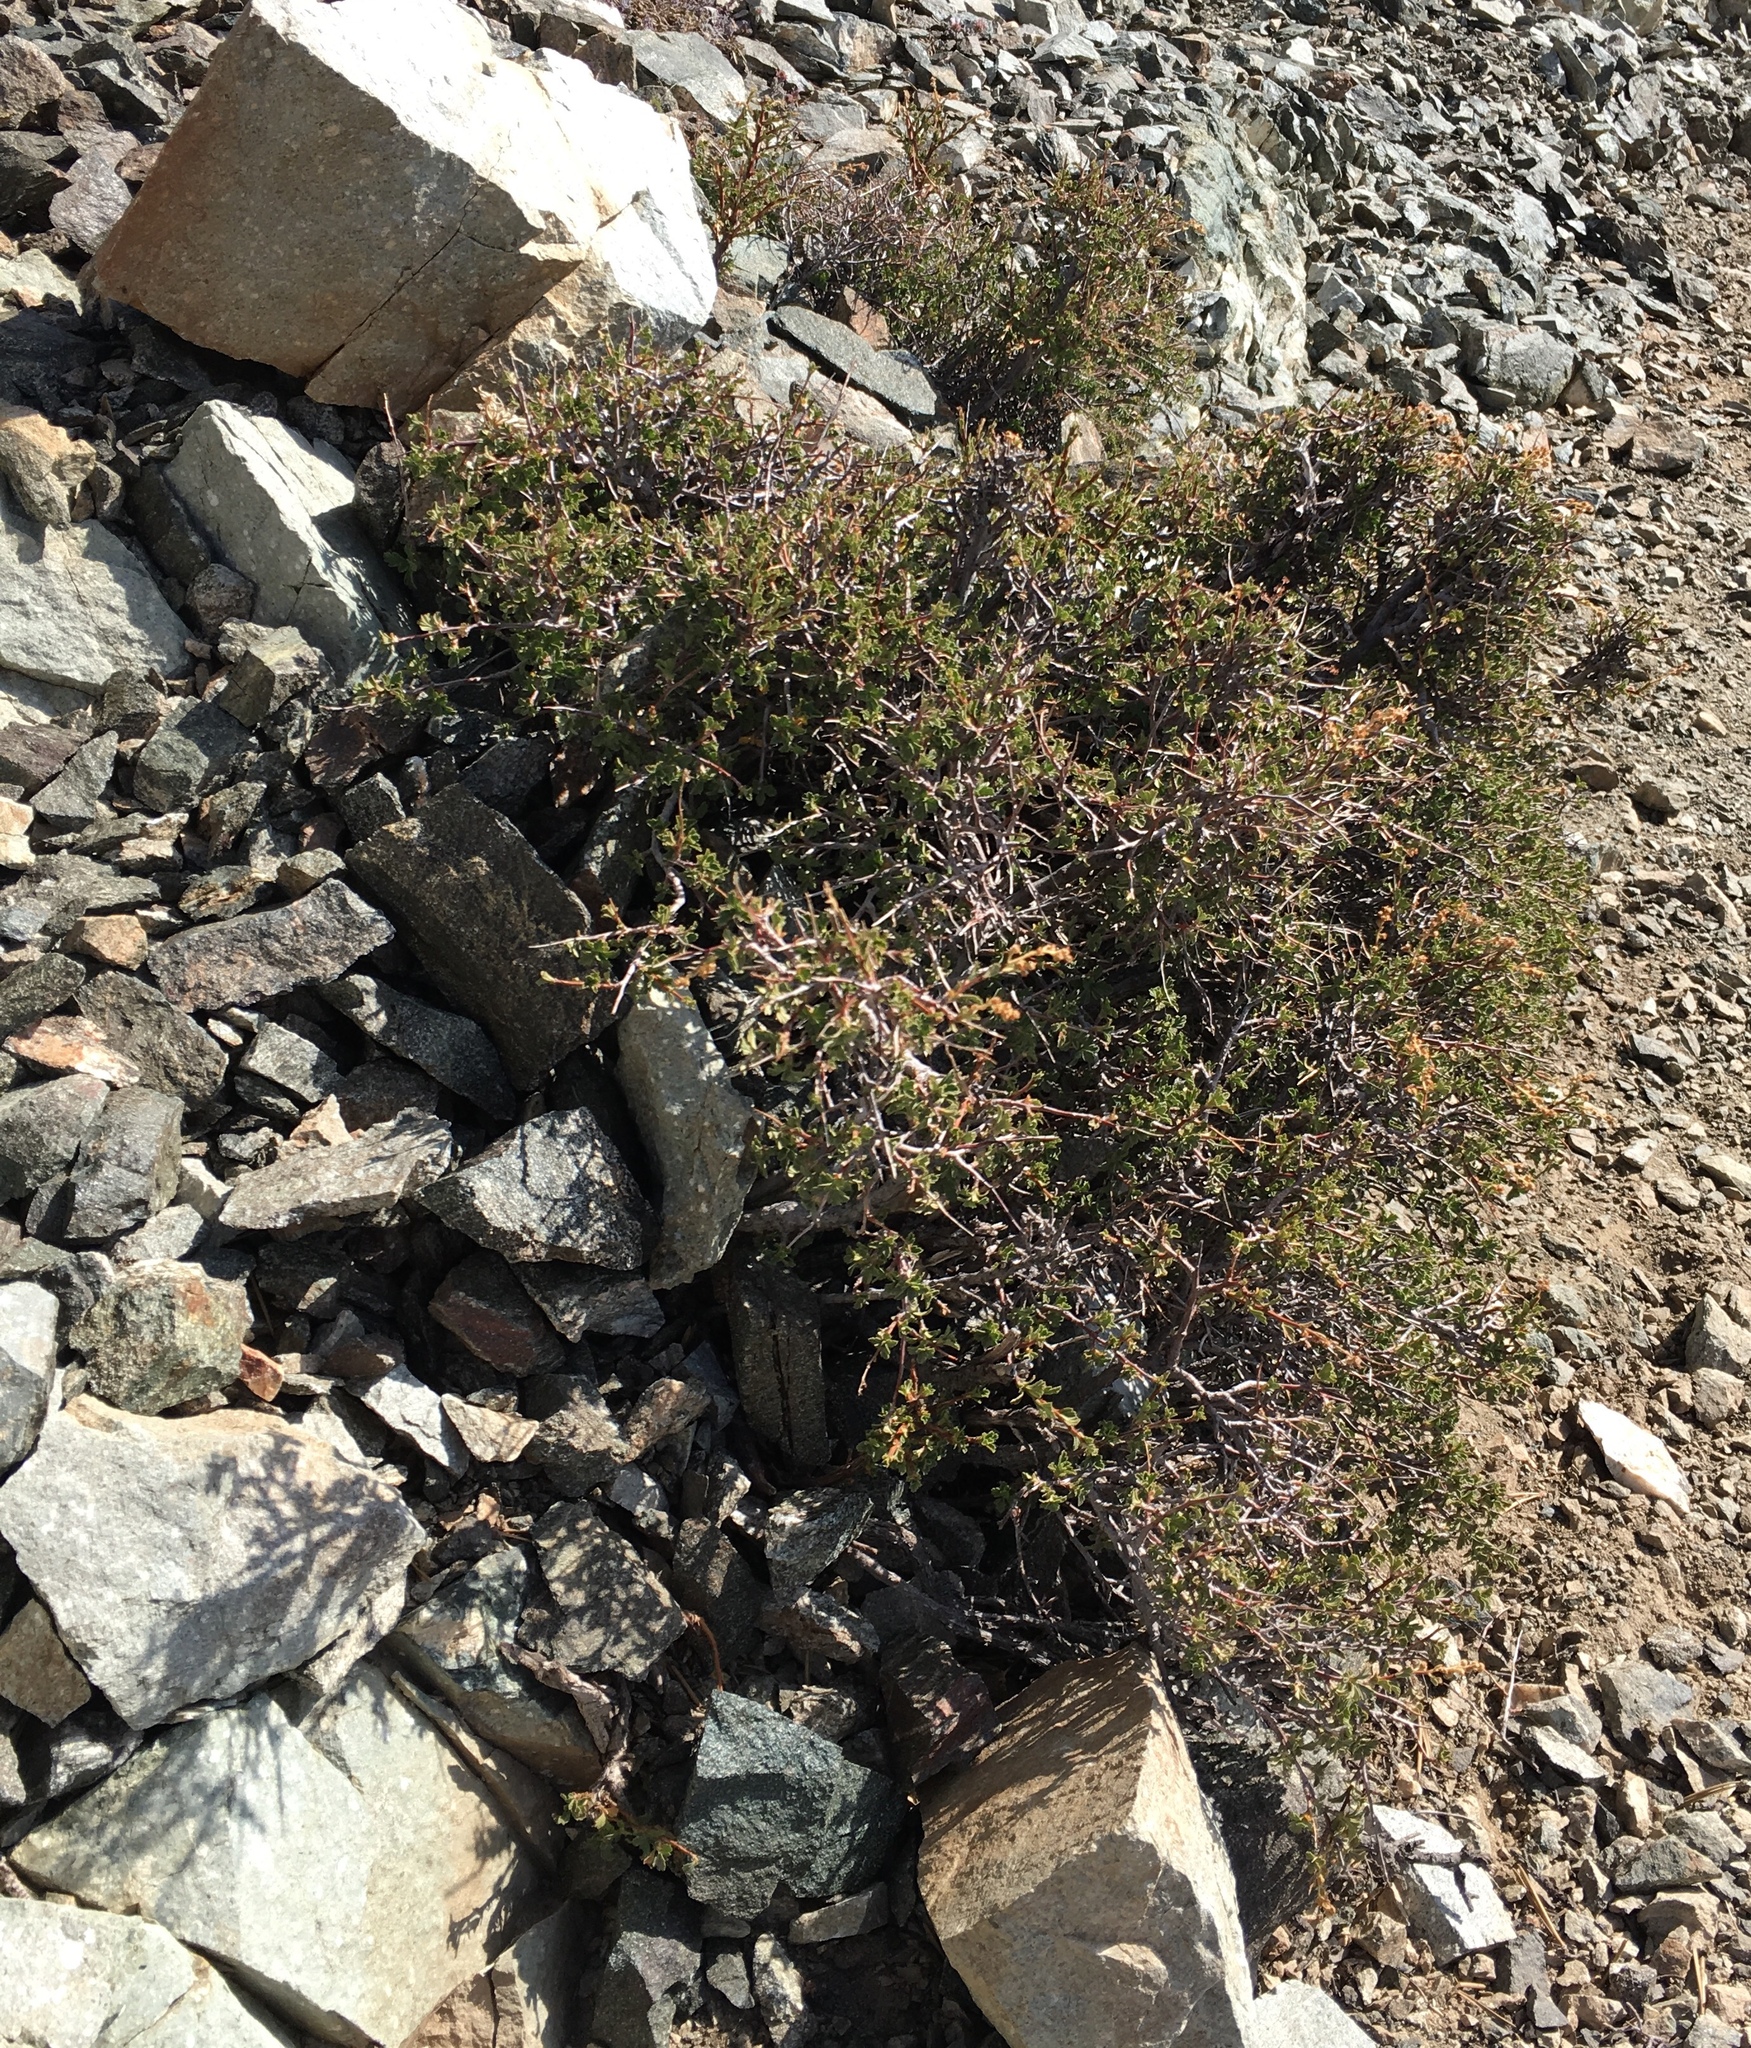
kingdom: Plantae
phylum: Tracheophyta
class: Magnoliopsida
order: Rosales
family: Rosaceae
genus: Holodiscus
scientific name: Holodiscus discolor
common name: Oceanspray
